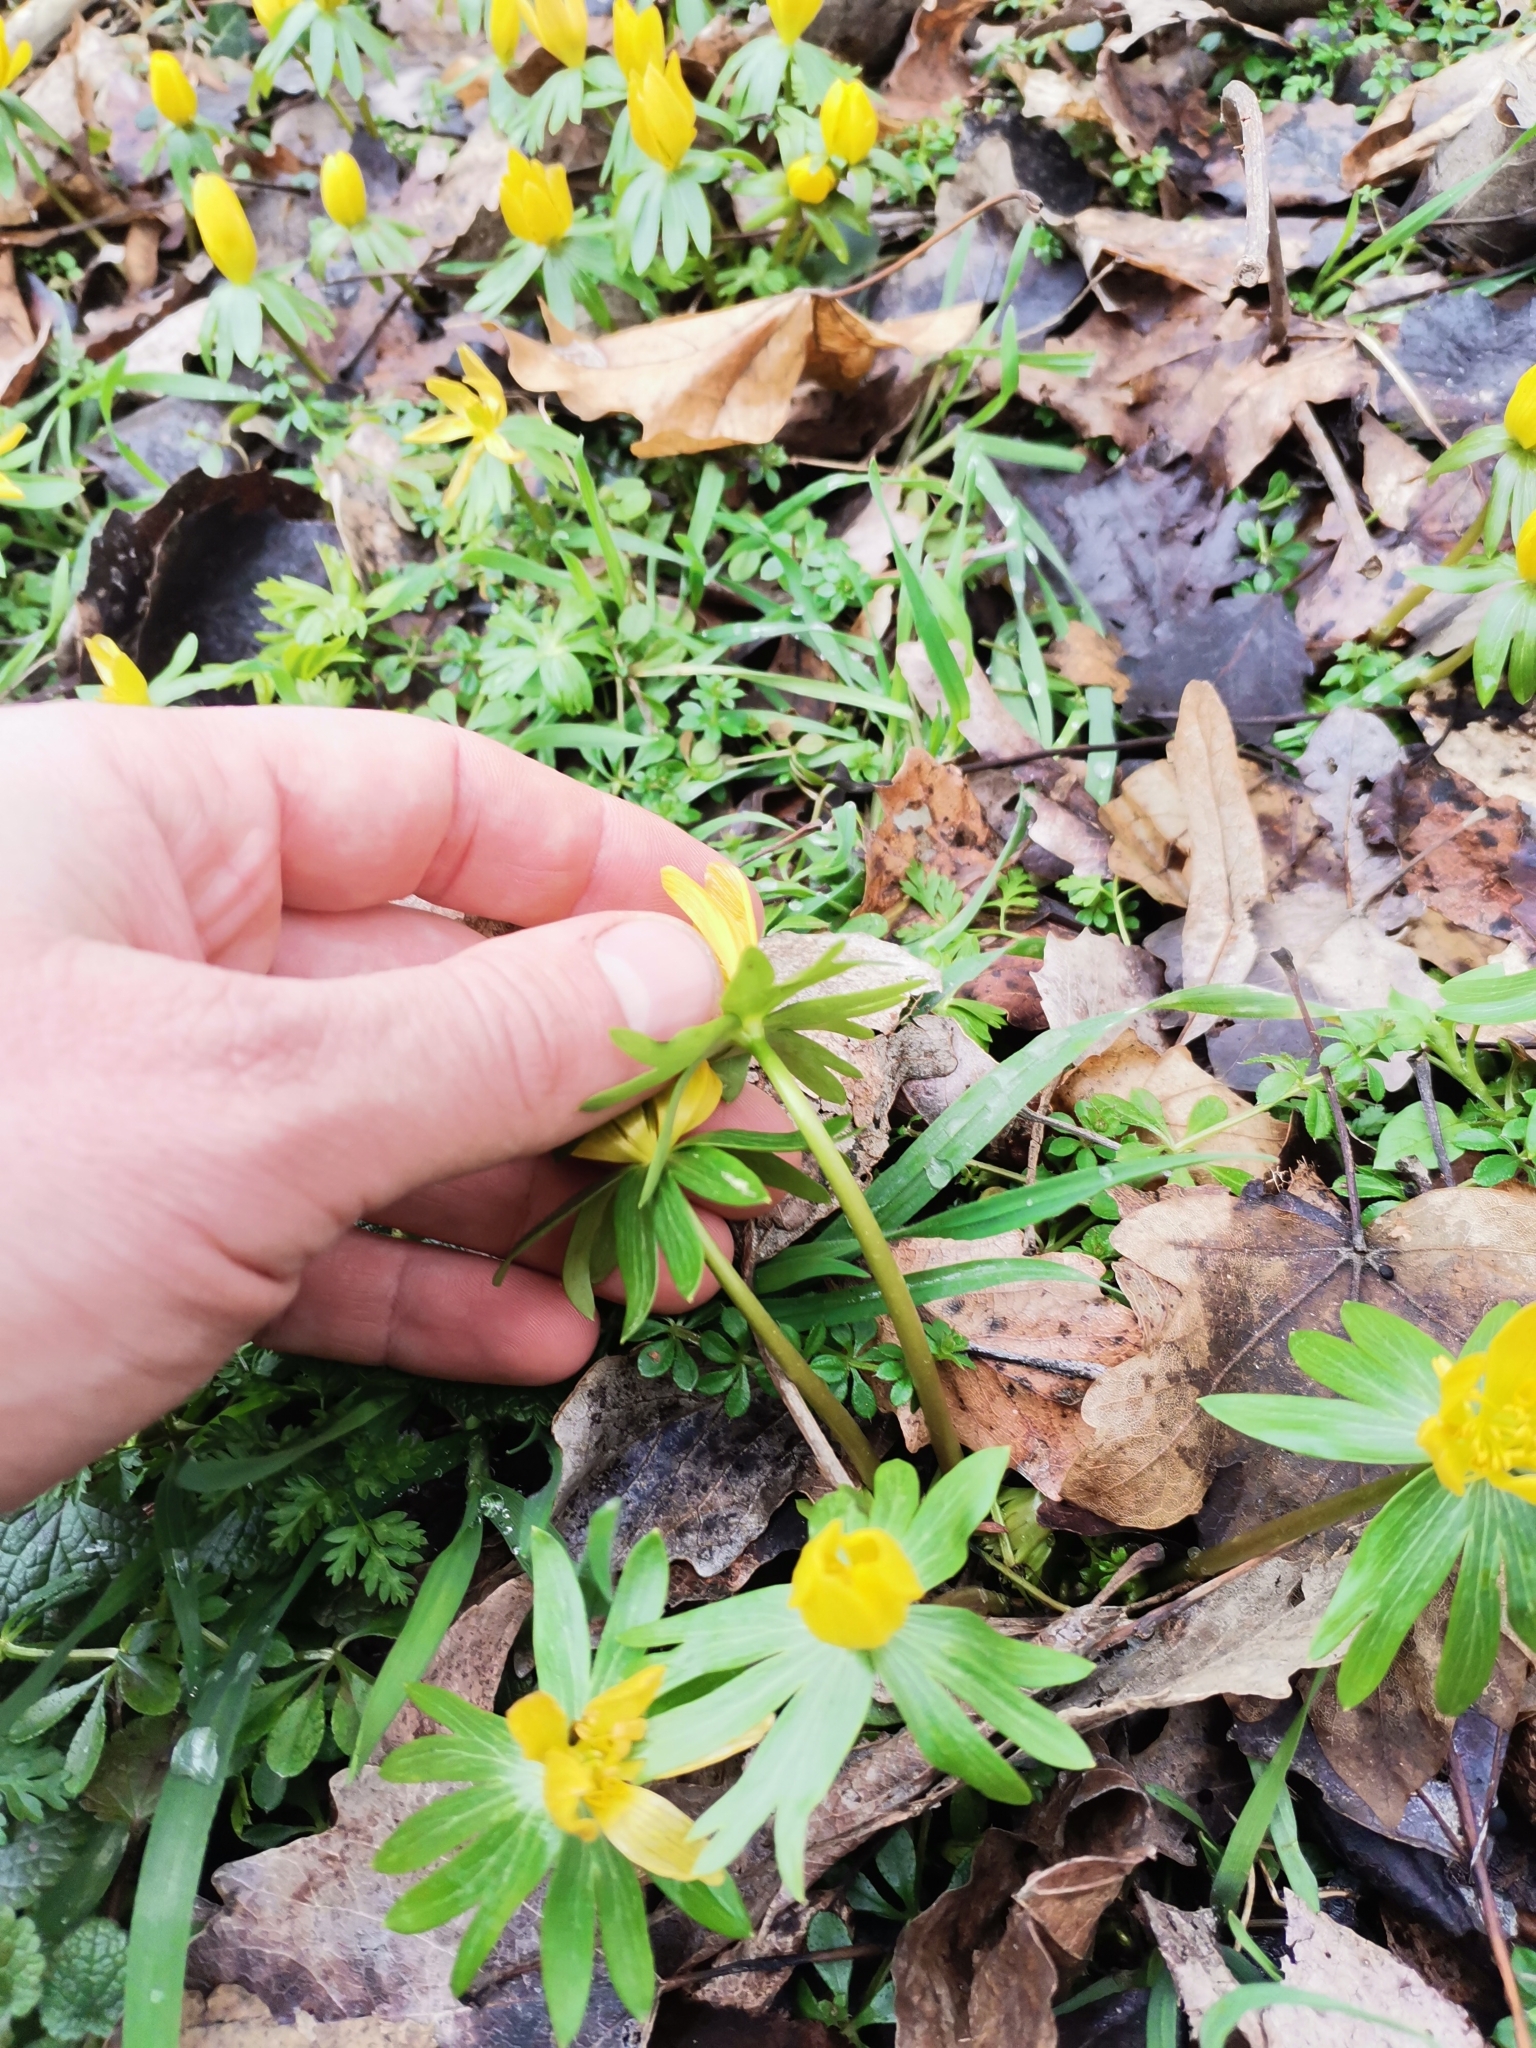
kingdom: Plantae
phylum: Tracheophyta
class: Magnoliopsida
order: Ranunculales
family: Ranunculaceae
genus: Eranthis
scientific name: Eranthis hyemalis
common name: Winter aconite
